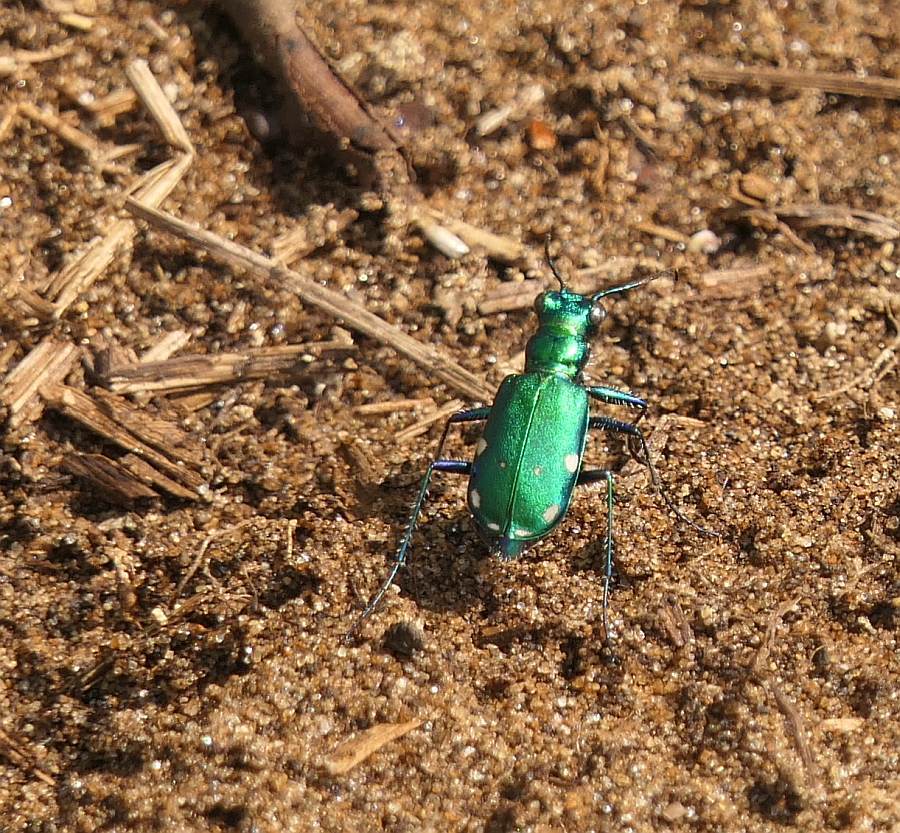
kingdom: Animalia
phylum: Arthropoda
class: Insecta
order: Coleoptera
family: Carabidae
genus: Cicindela
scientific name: Cicindela sexguttata
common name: Six-spotted tiger beetle
